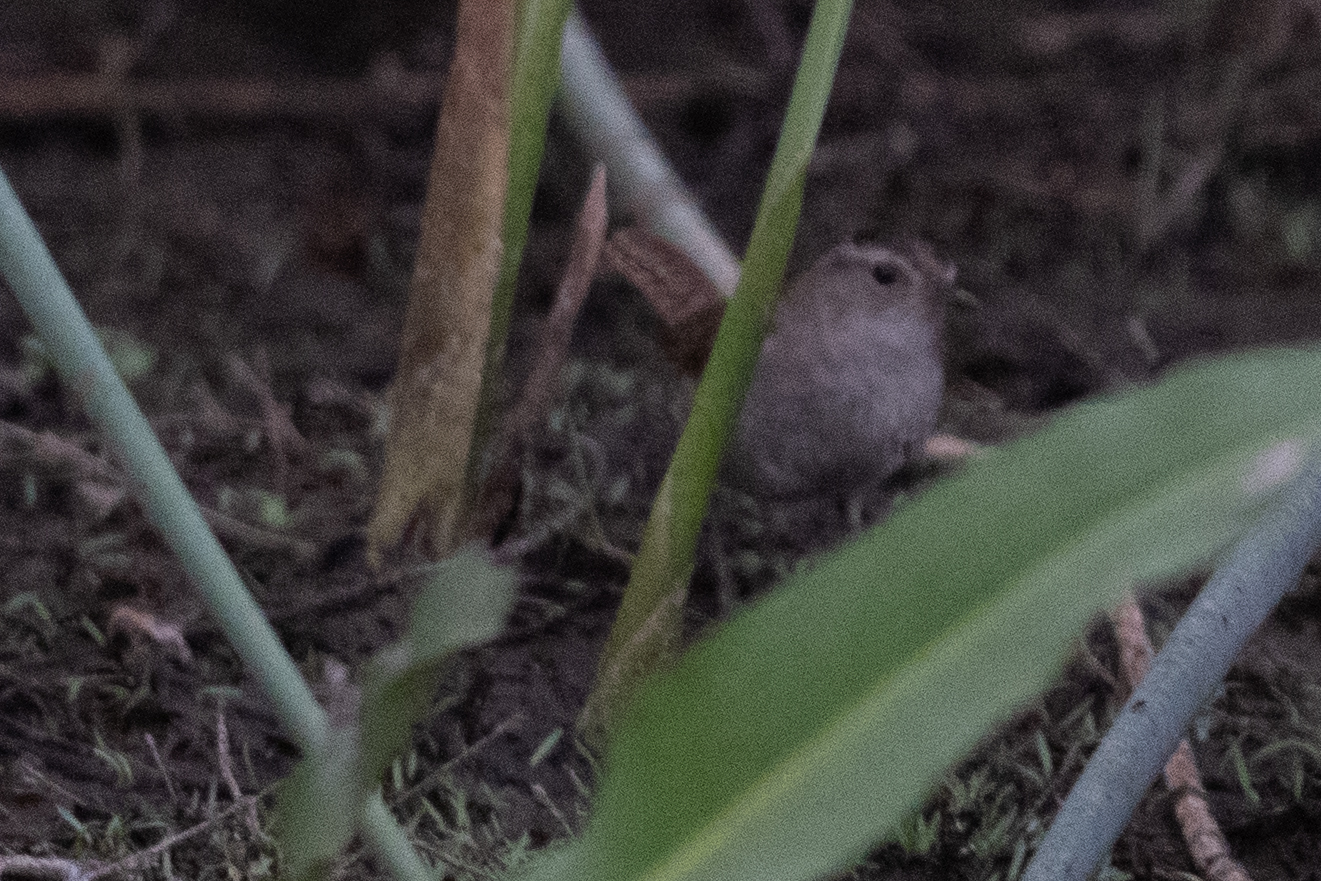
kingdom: Animalia
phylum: Chordata
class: Aves
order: Passeriformes
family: Troglodytidae
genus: Cistothorus
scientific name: Cistothorus palustris
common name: Marsh wren
